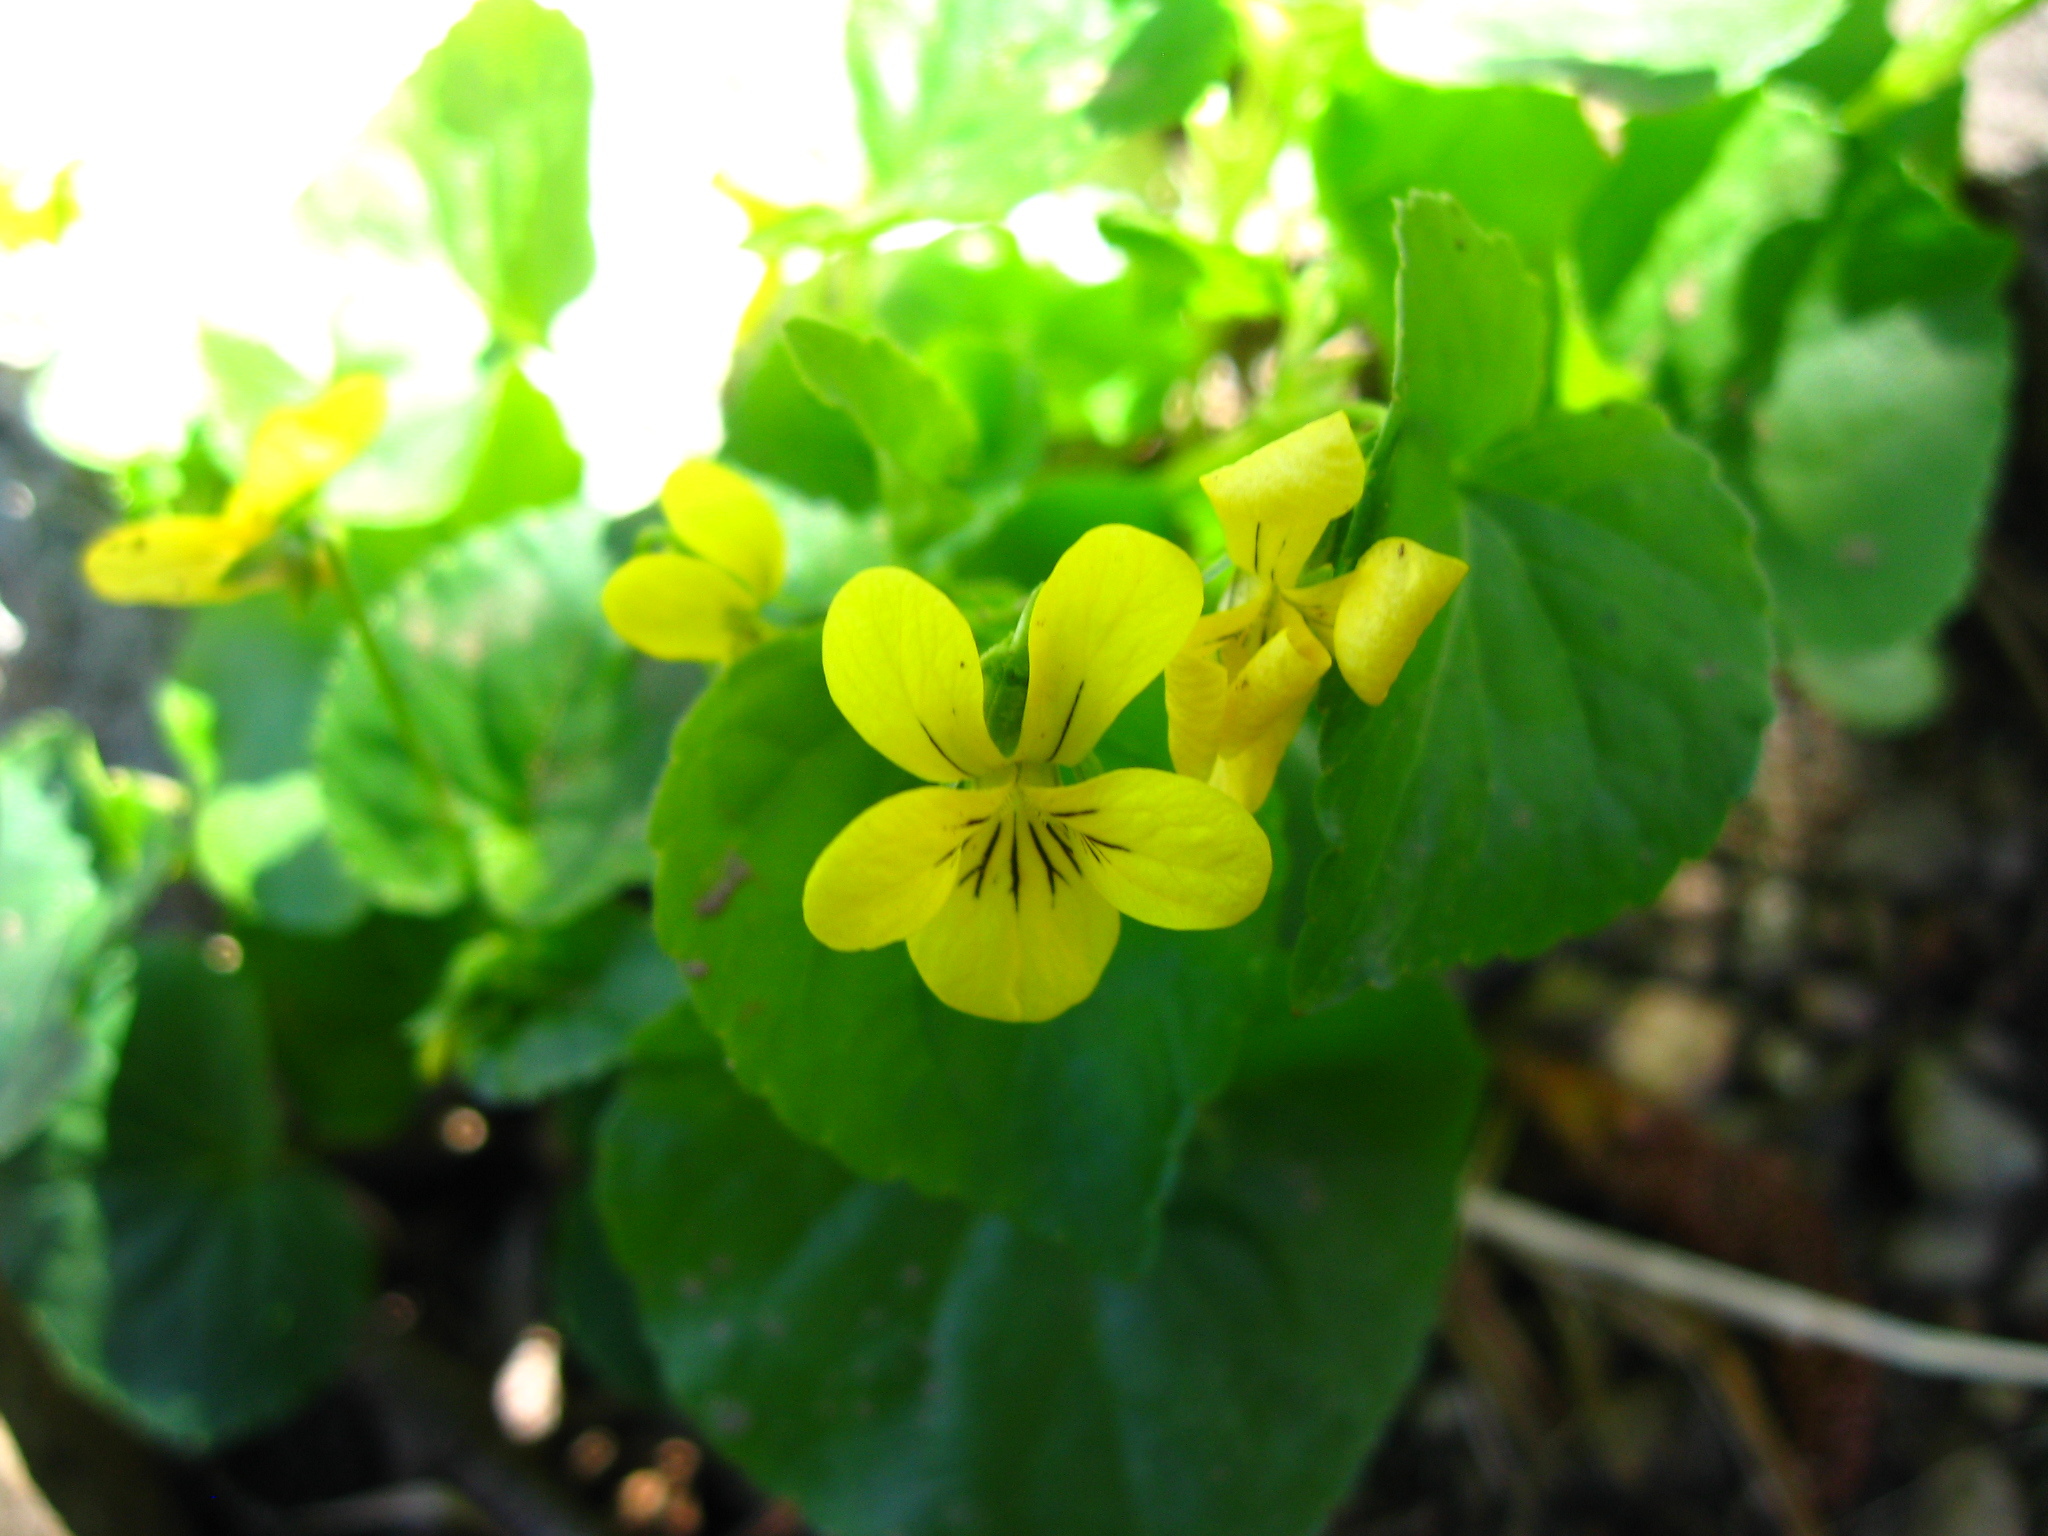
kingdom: Plantae
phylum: Tracheophyta
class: Magnoliopsida
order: Malpighiales
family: Violaceae
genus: Viola
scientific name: Viola glabella
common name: Stream violet
